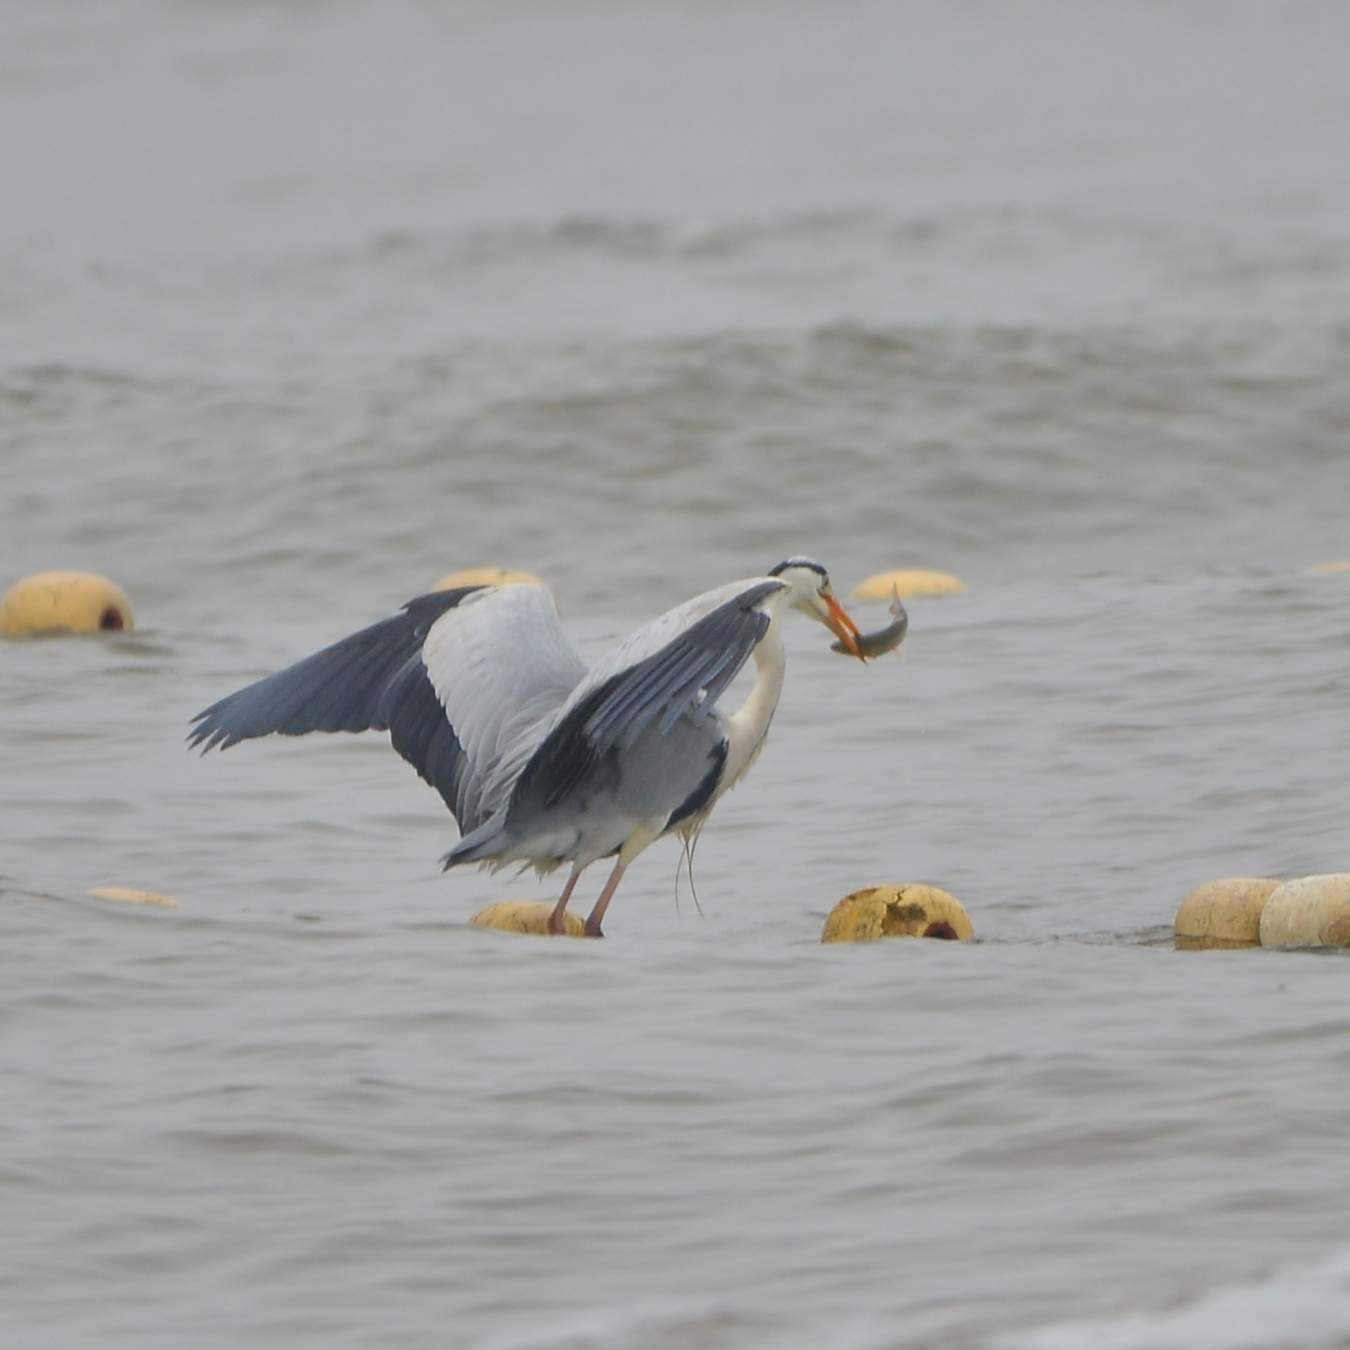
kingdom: Animalia
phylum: Chordata
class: Aves
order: Pelecaniformes
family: Ardeidae
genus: Ardea
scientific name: Ardea cinerea
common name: Grey heron
